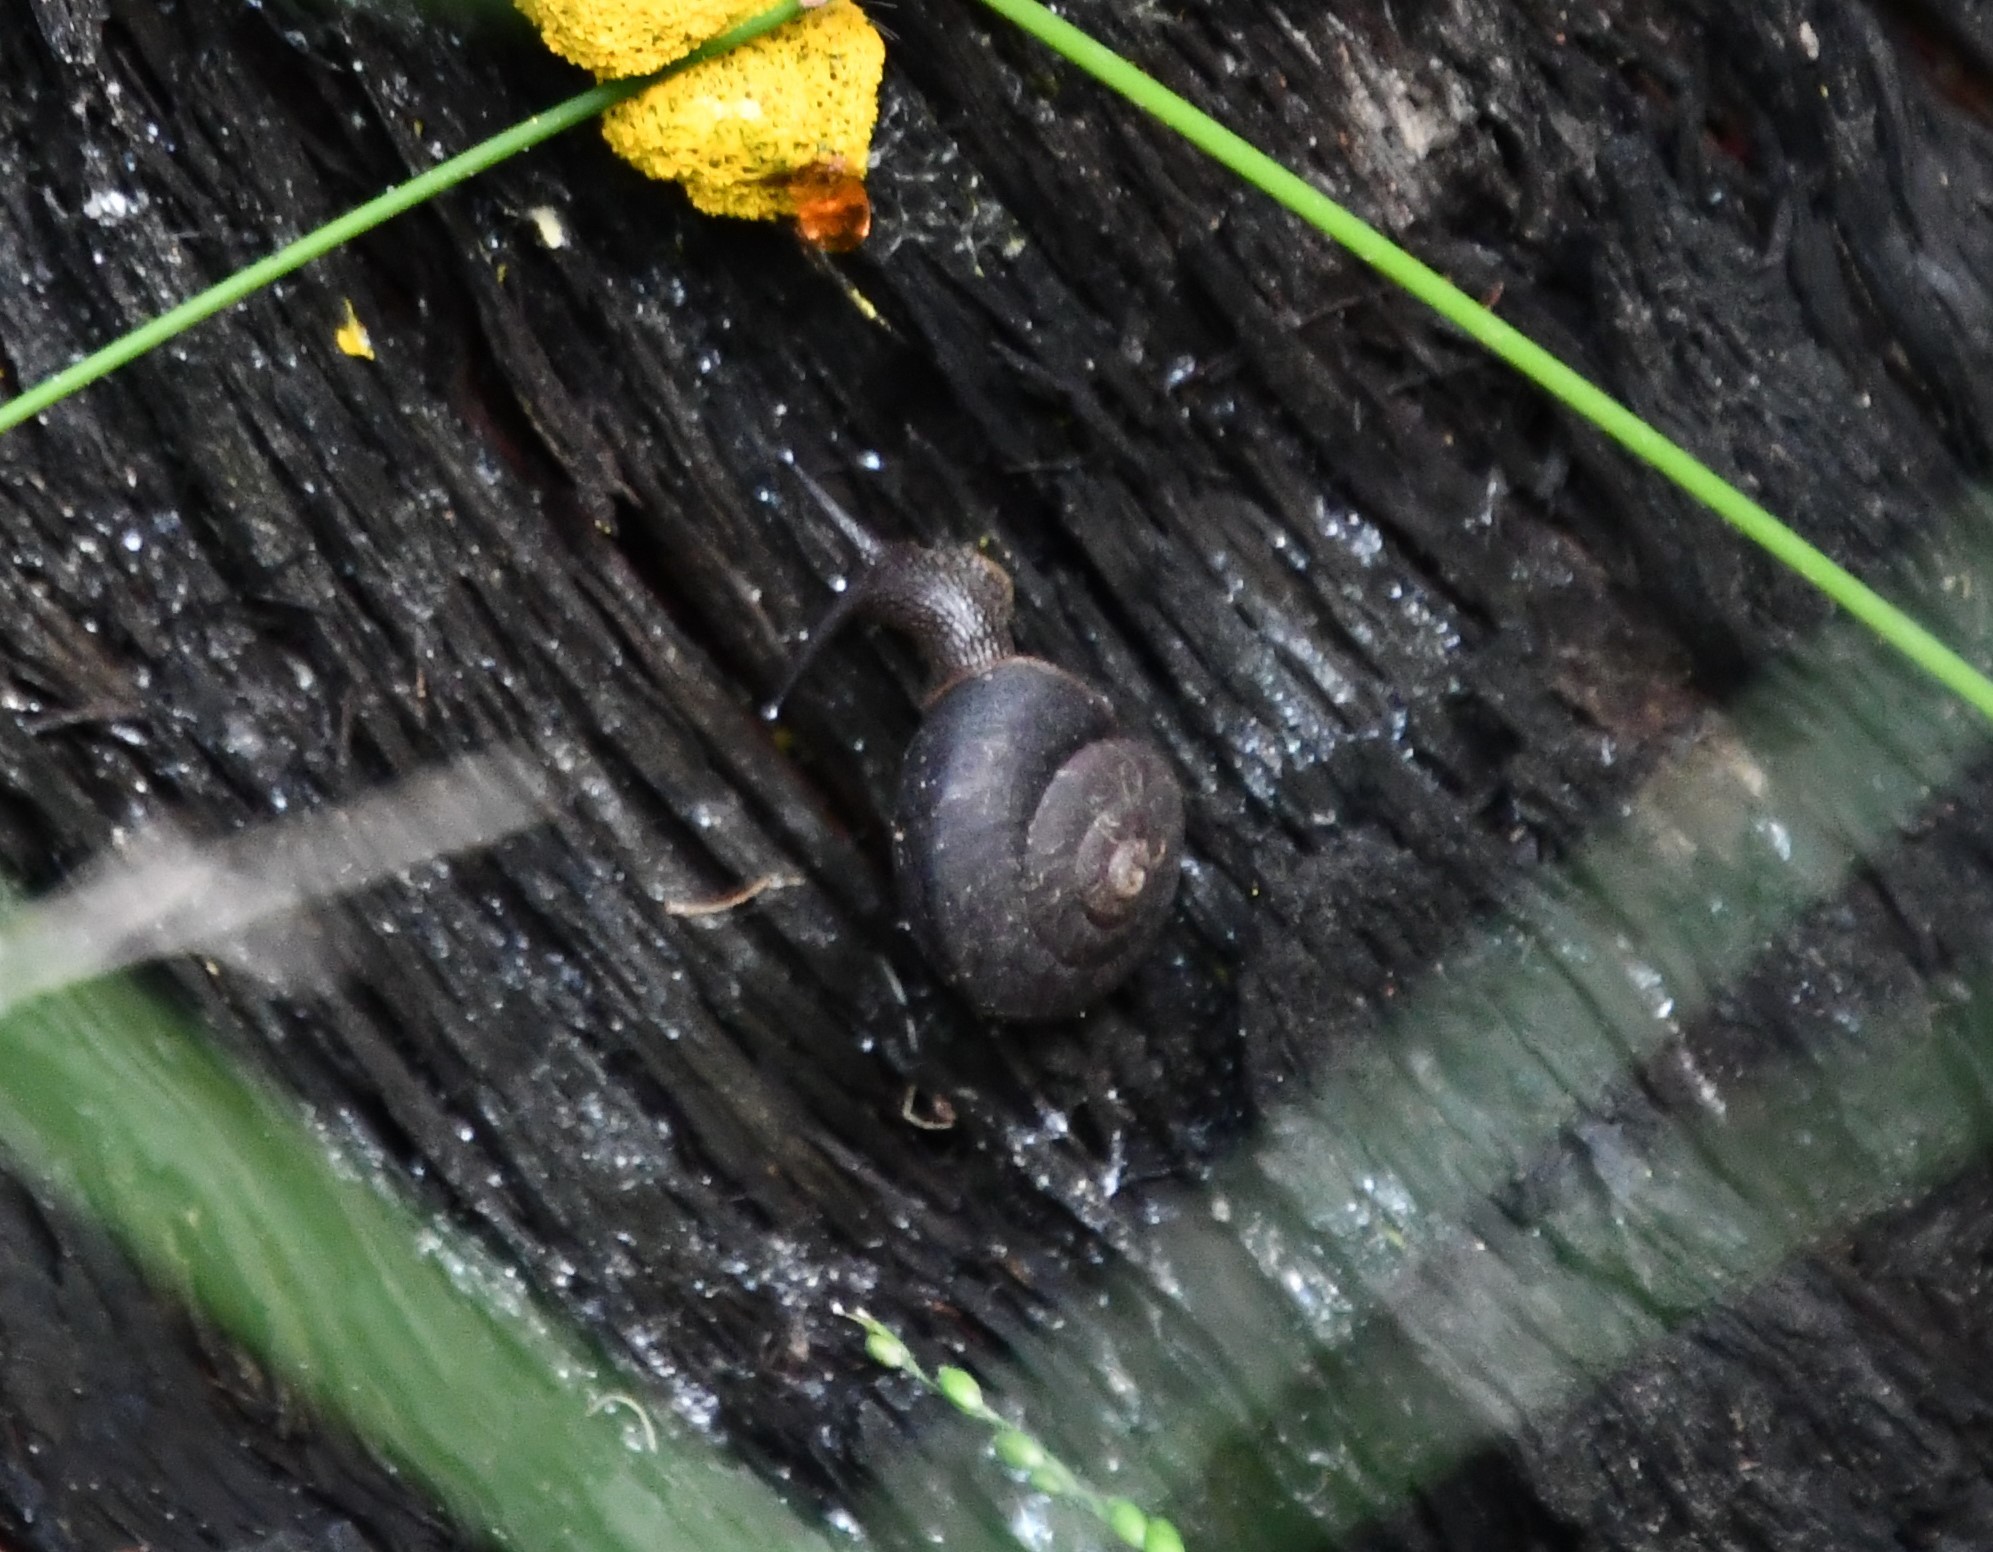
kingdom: Animalia
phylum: Mollusca
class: Gastropoda
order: Stylommatophora
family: Camaenidae
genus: Pommerhelix
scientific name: Pommerhelix mastersi
